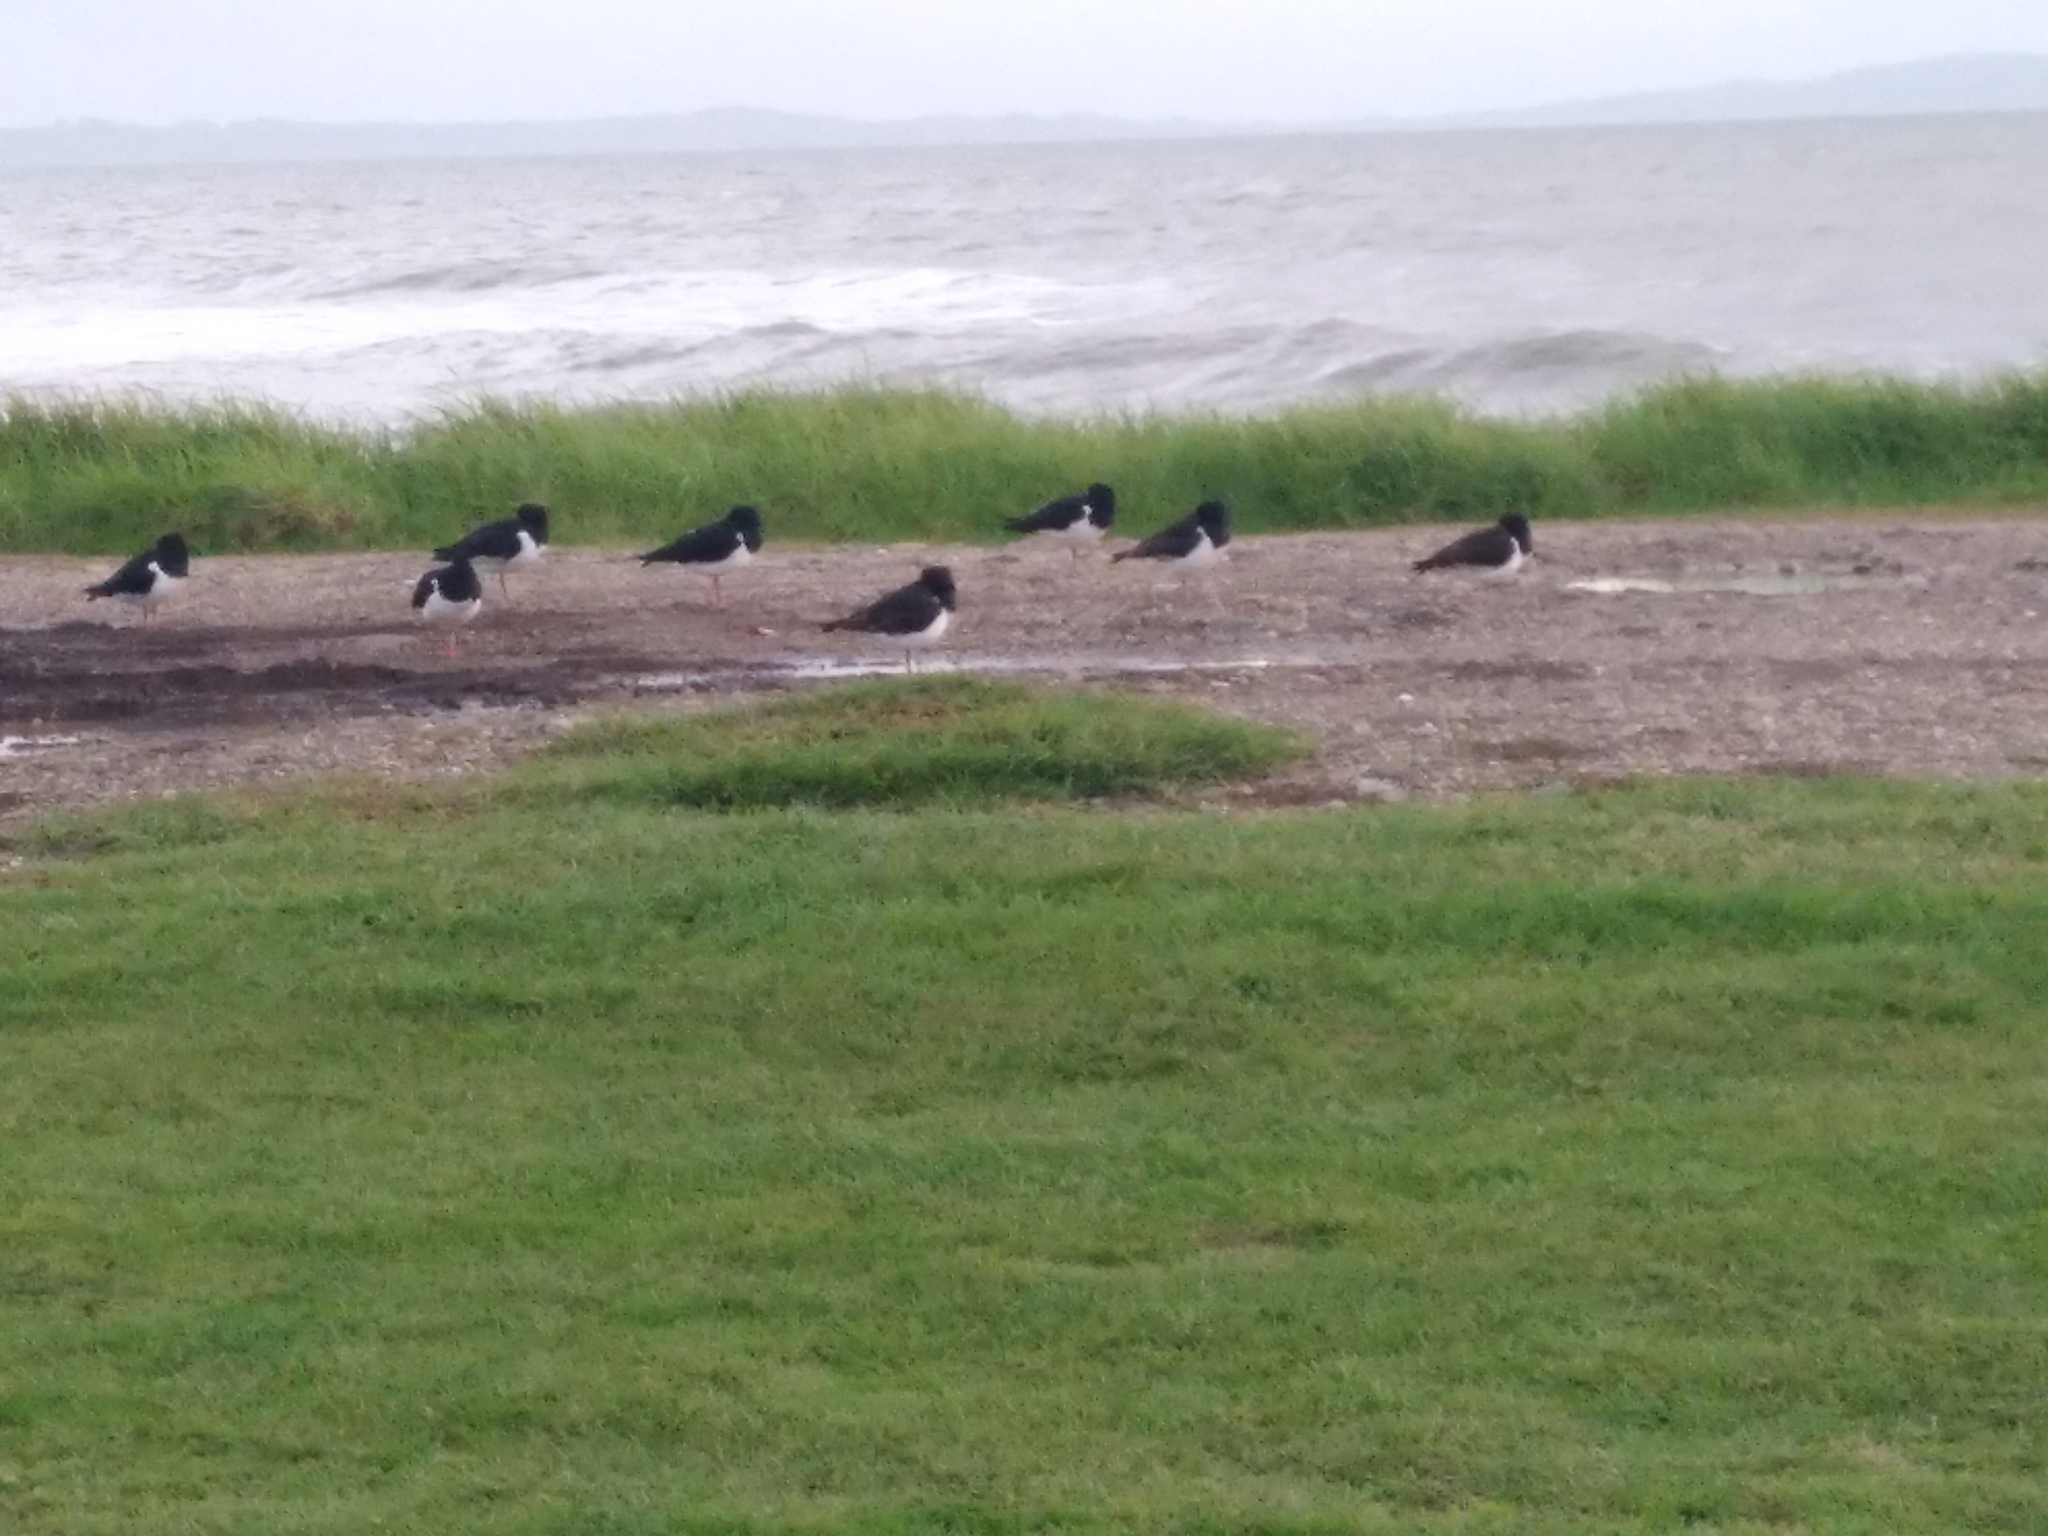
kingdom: Animalia
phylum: Chordata
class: Aves
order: Charadriiformes
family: Haematopodidae
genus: Haematopus
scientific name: Haematopus finschi
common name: South island oystercatcher
